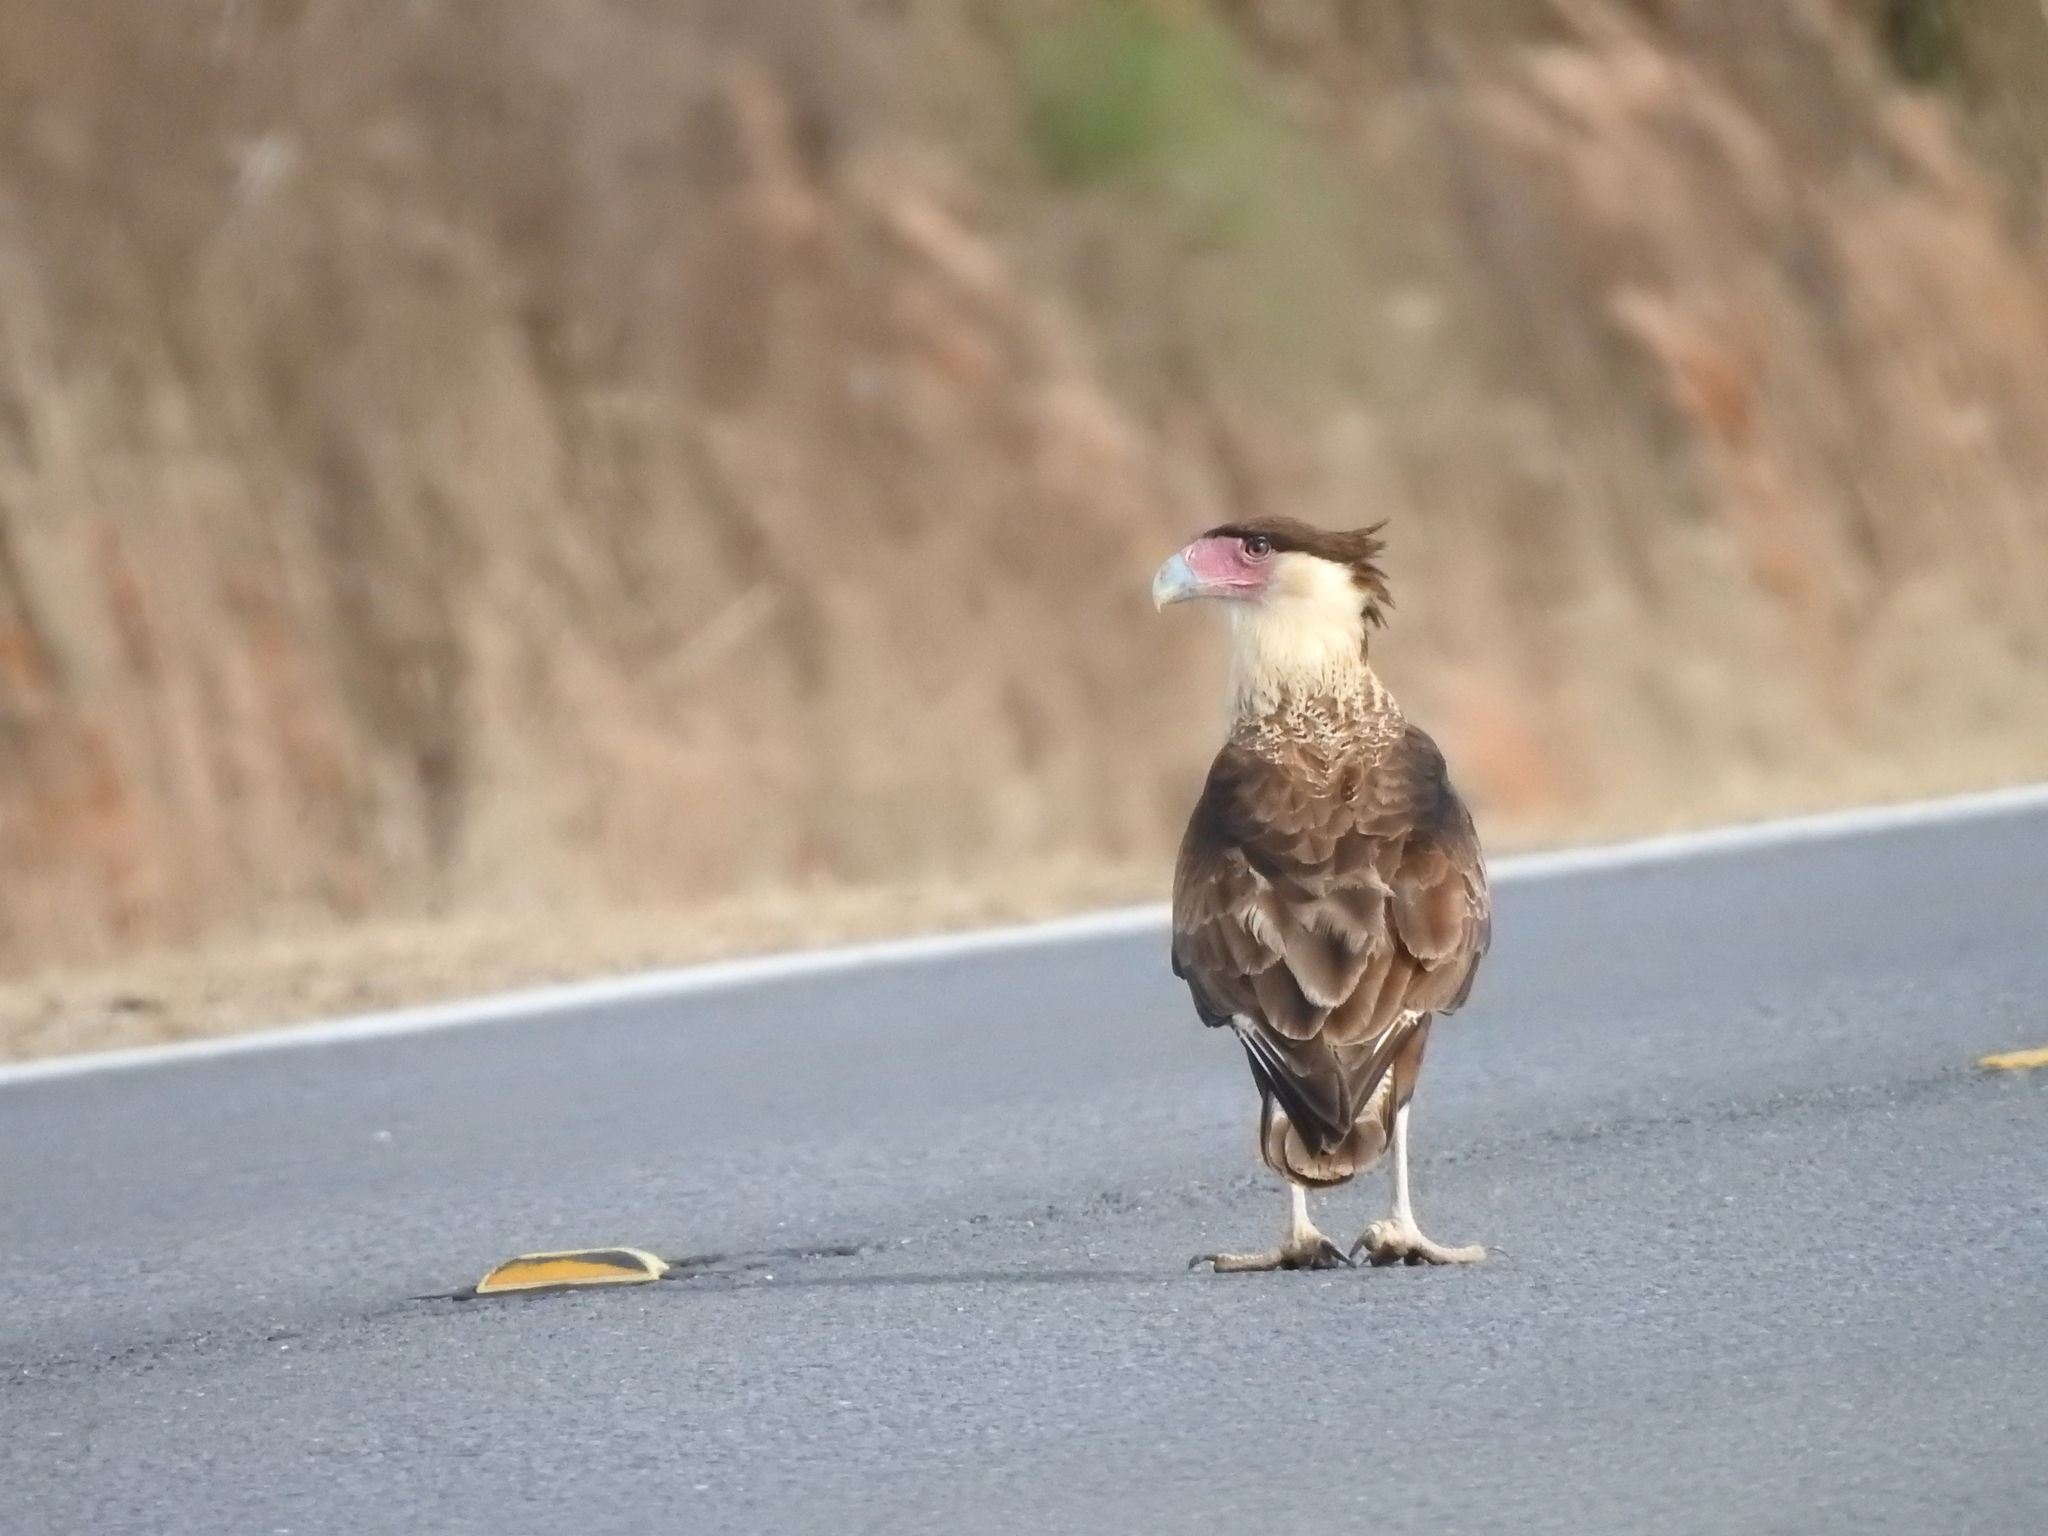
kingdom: Animalia
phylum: Chordata
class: Aves
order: Falconiformes
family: Falconidae
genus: Caracara
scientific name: Caracara plancus
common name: Southern caracara
